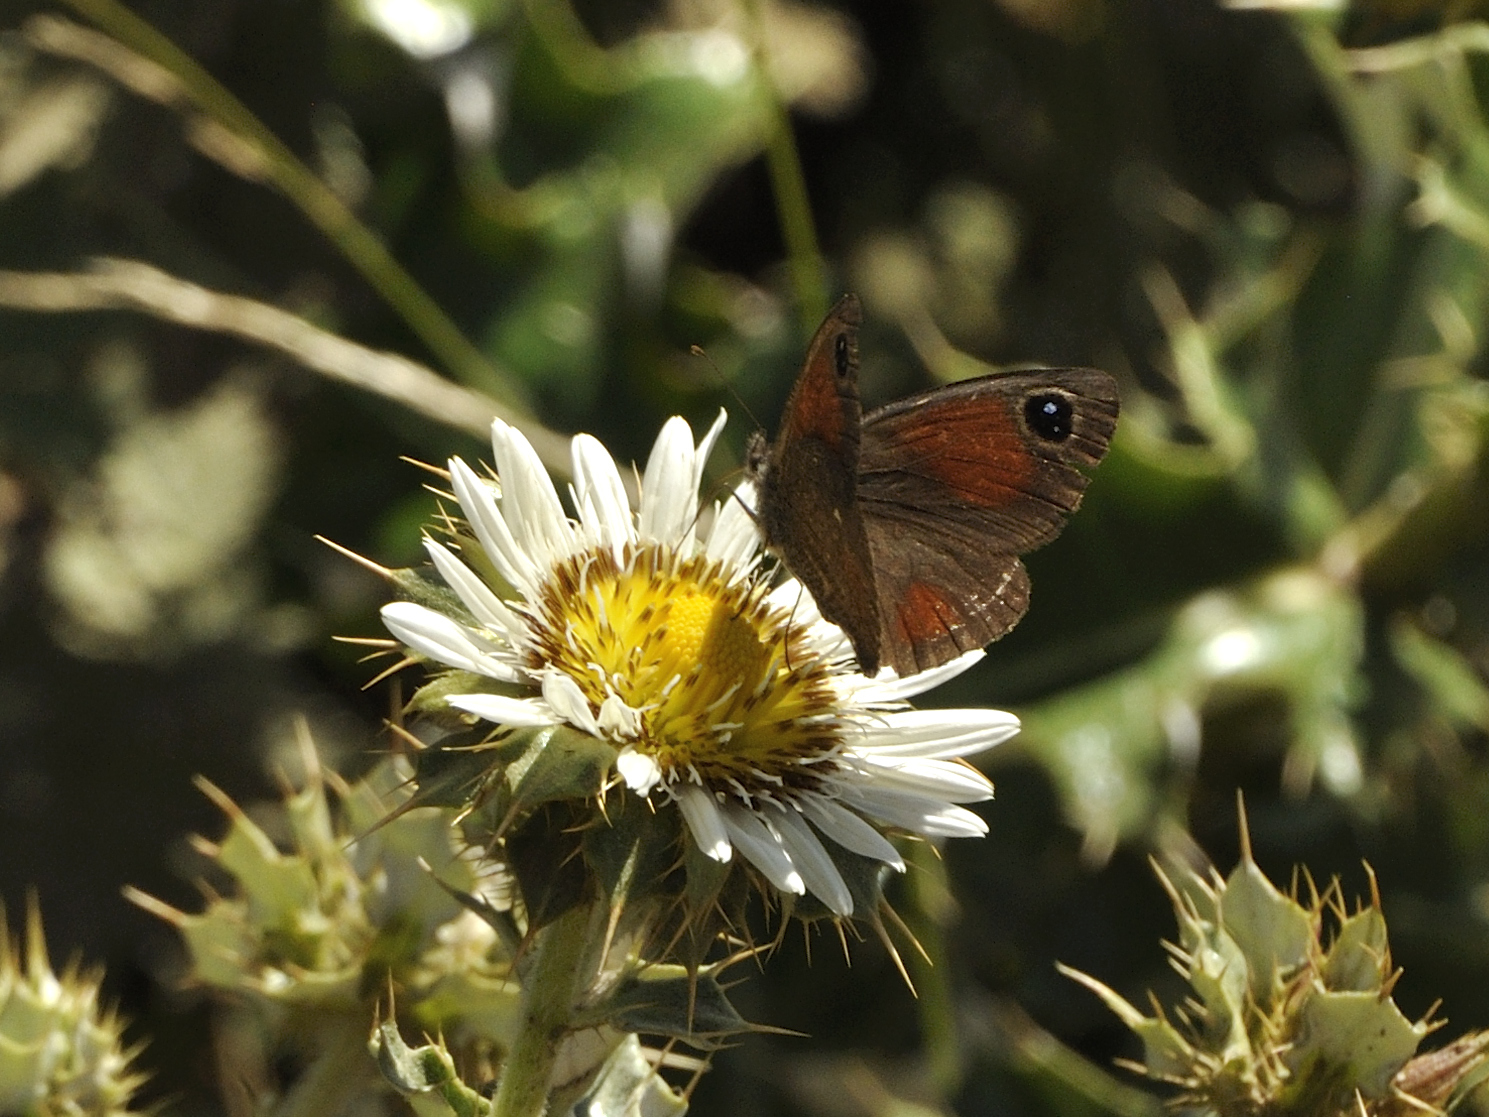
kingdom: Animalia
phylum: Arthropoda
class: Insecta
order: Lepidoptera
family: Nymphalidae
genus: Stygionympha
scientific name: Stygionympha scotina
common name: Eastern hillside brown
